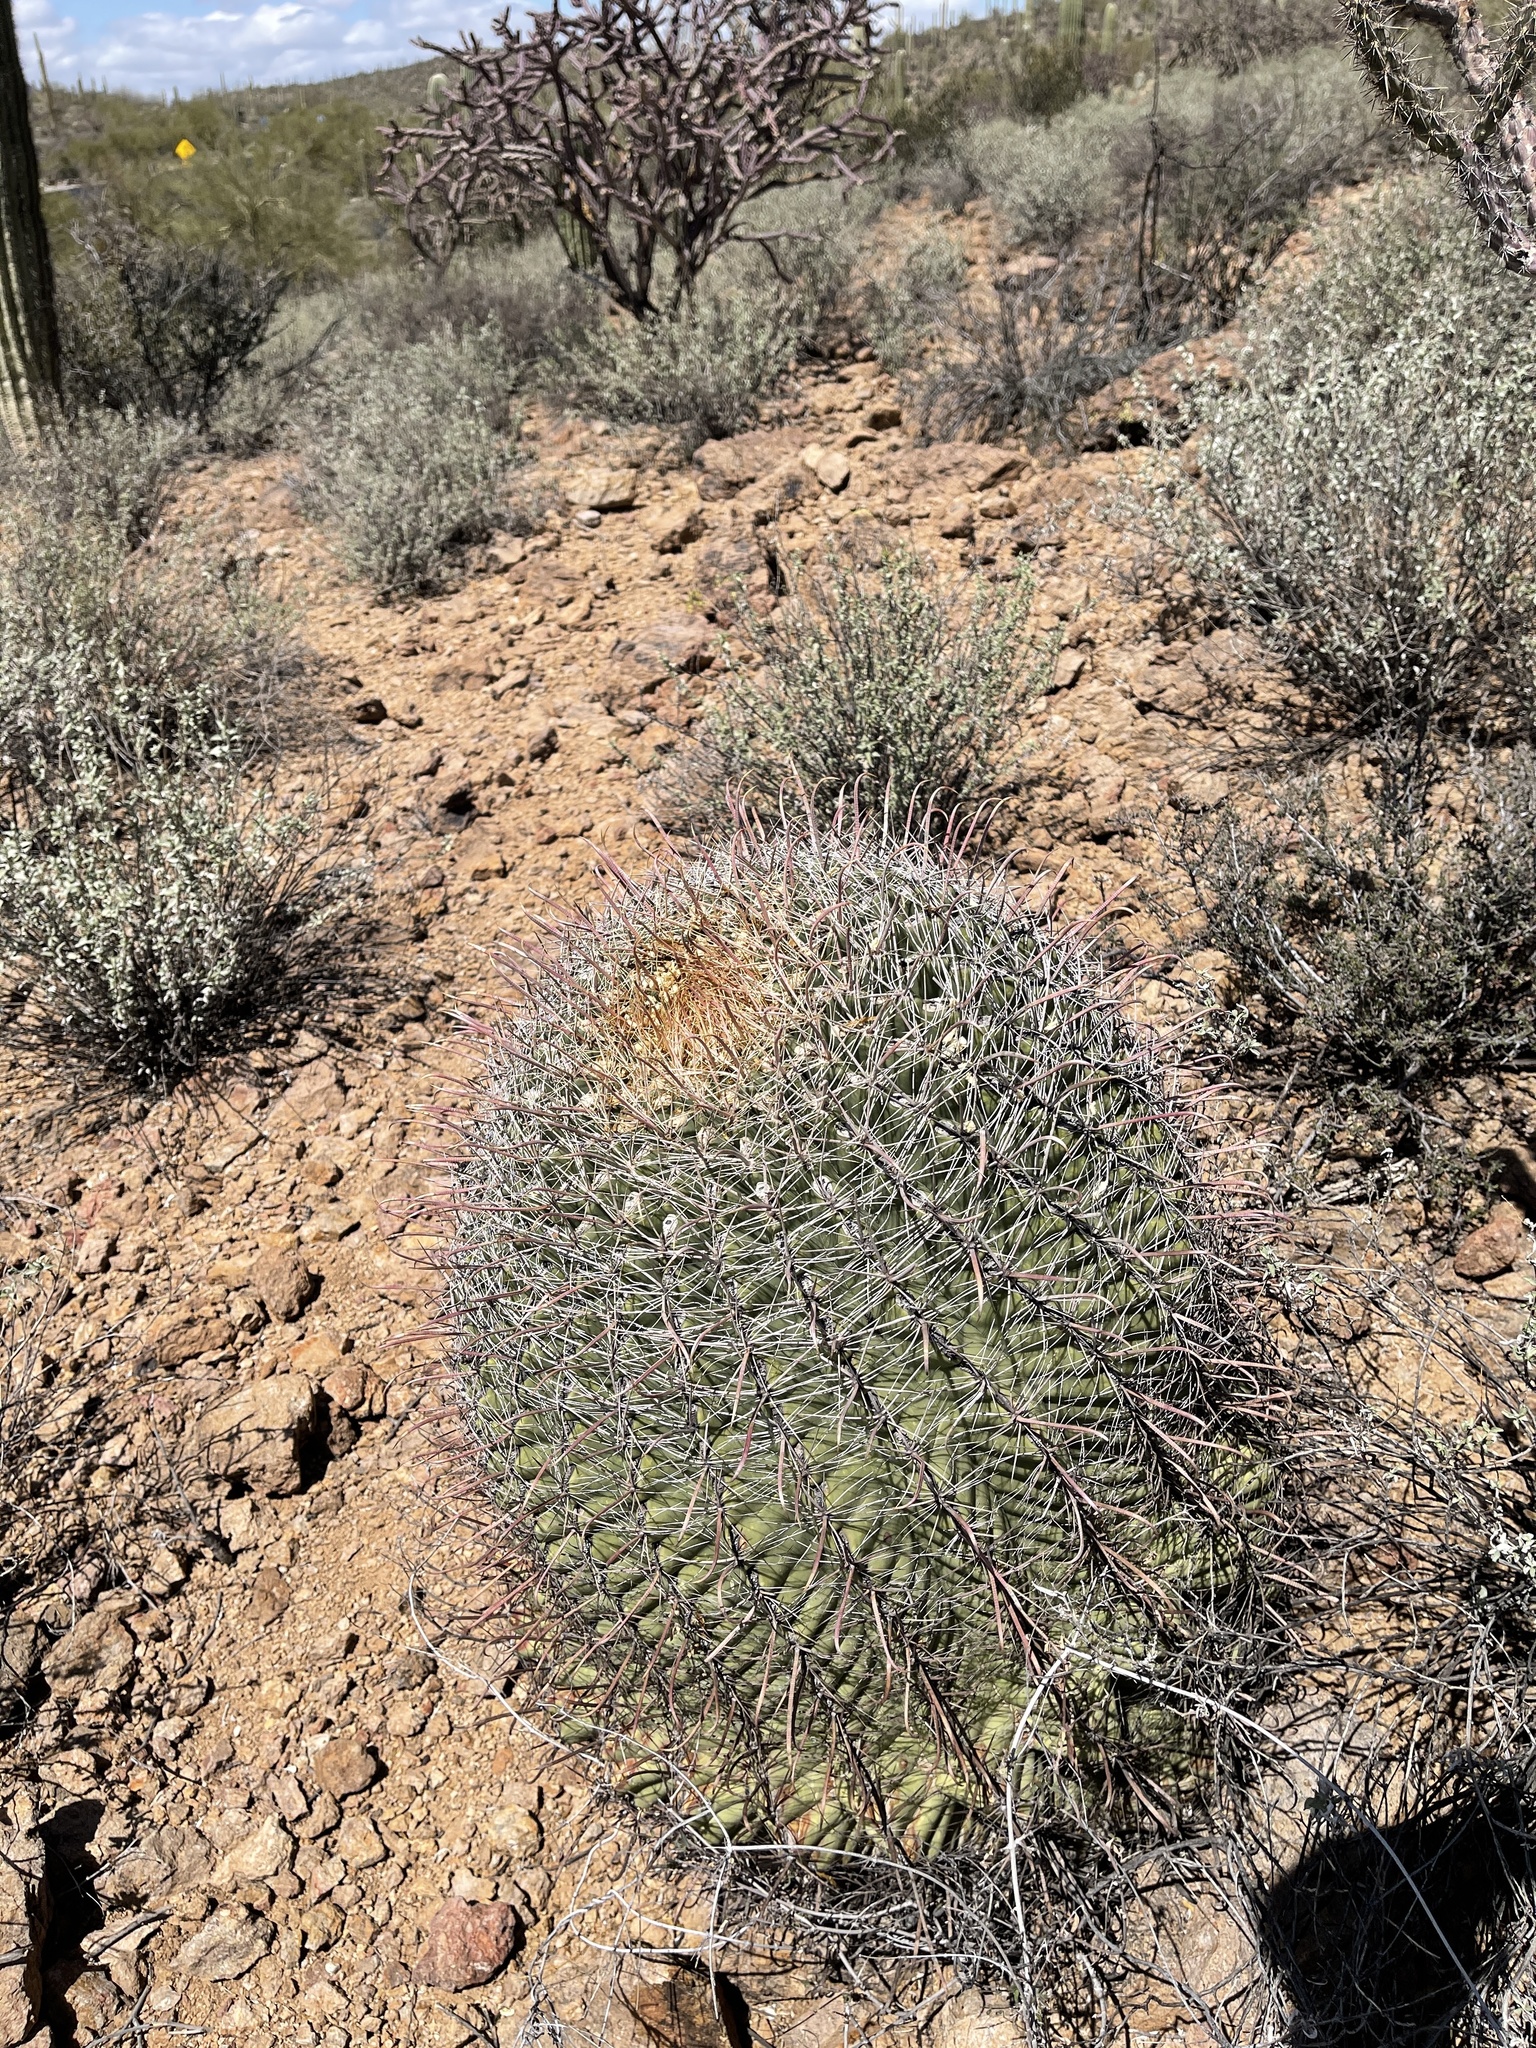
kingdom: Plantae
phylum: Tracheophyta
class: Magnoliopsida
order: Caryophyllales
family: Cactaceae
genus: Ferocactus
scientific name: Ferocactus wislizeni
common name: Candy barrel cactus
